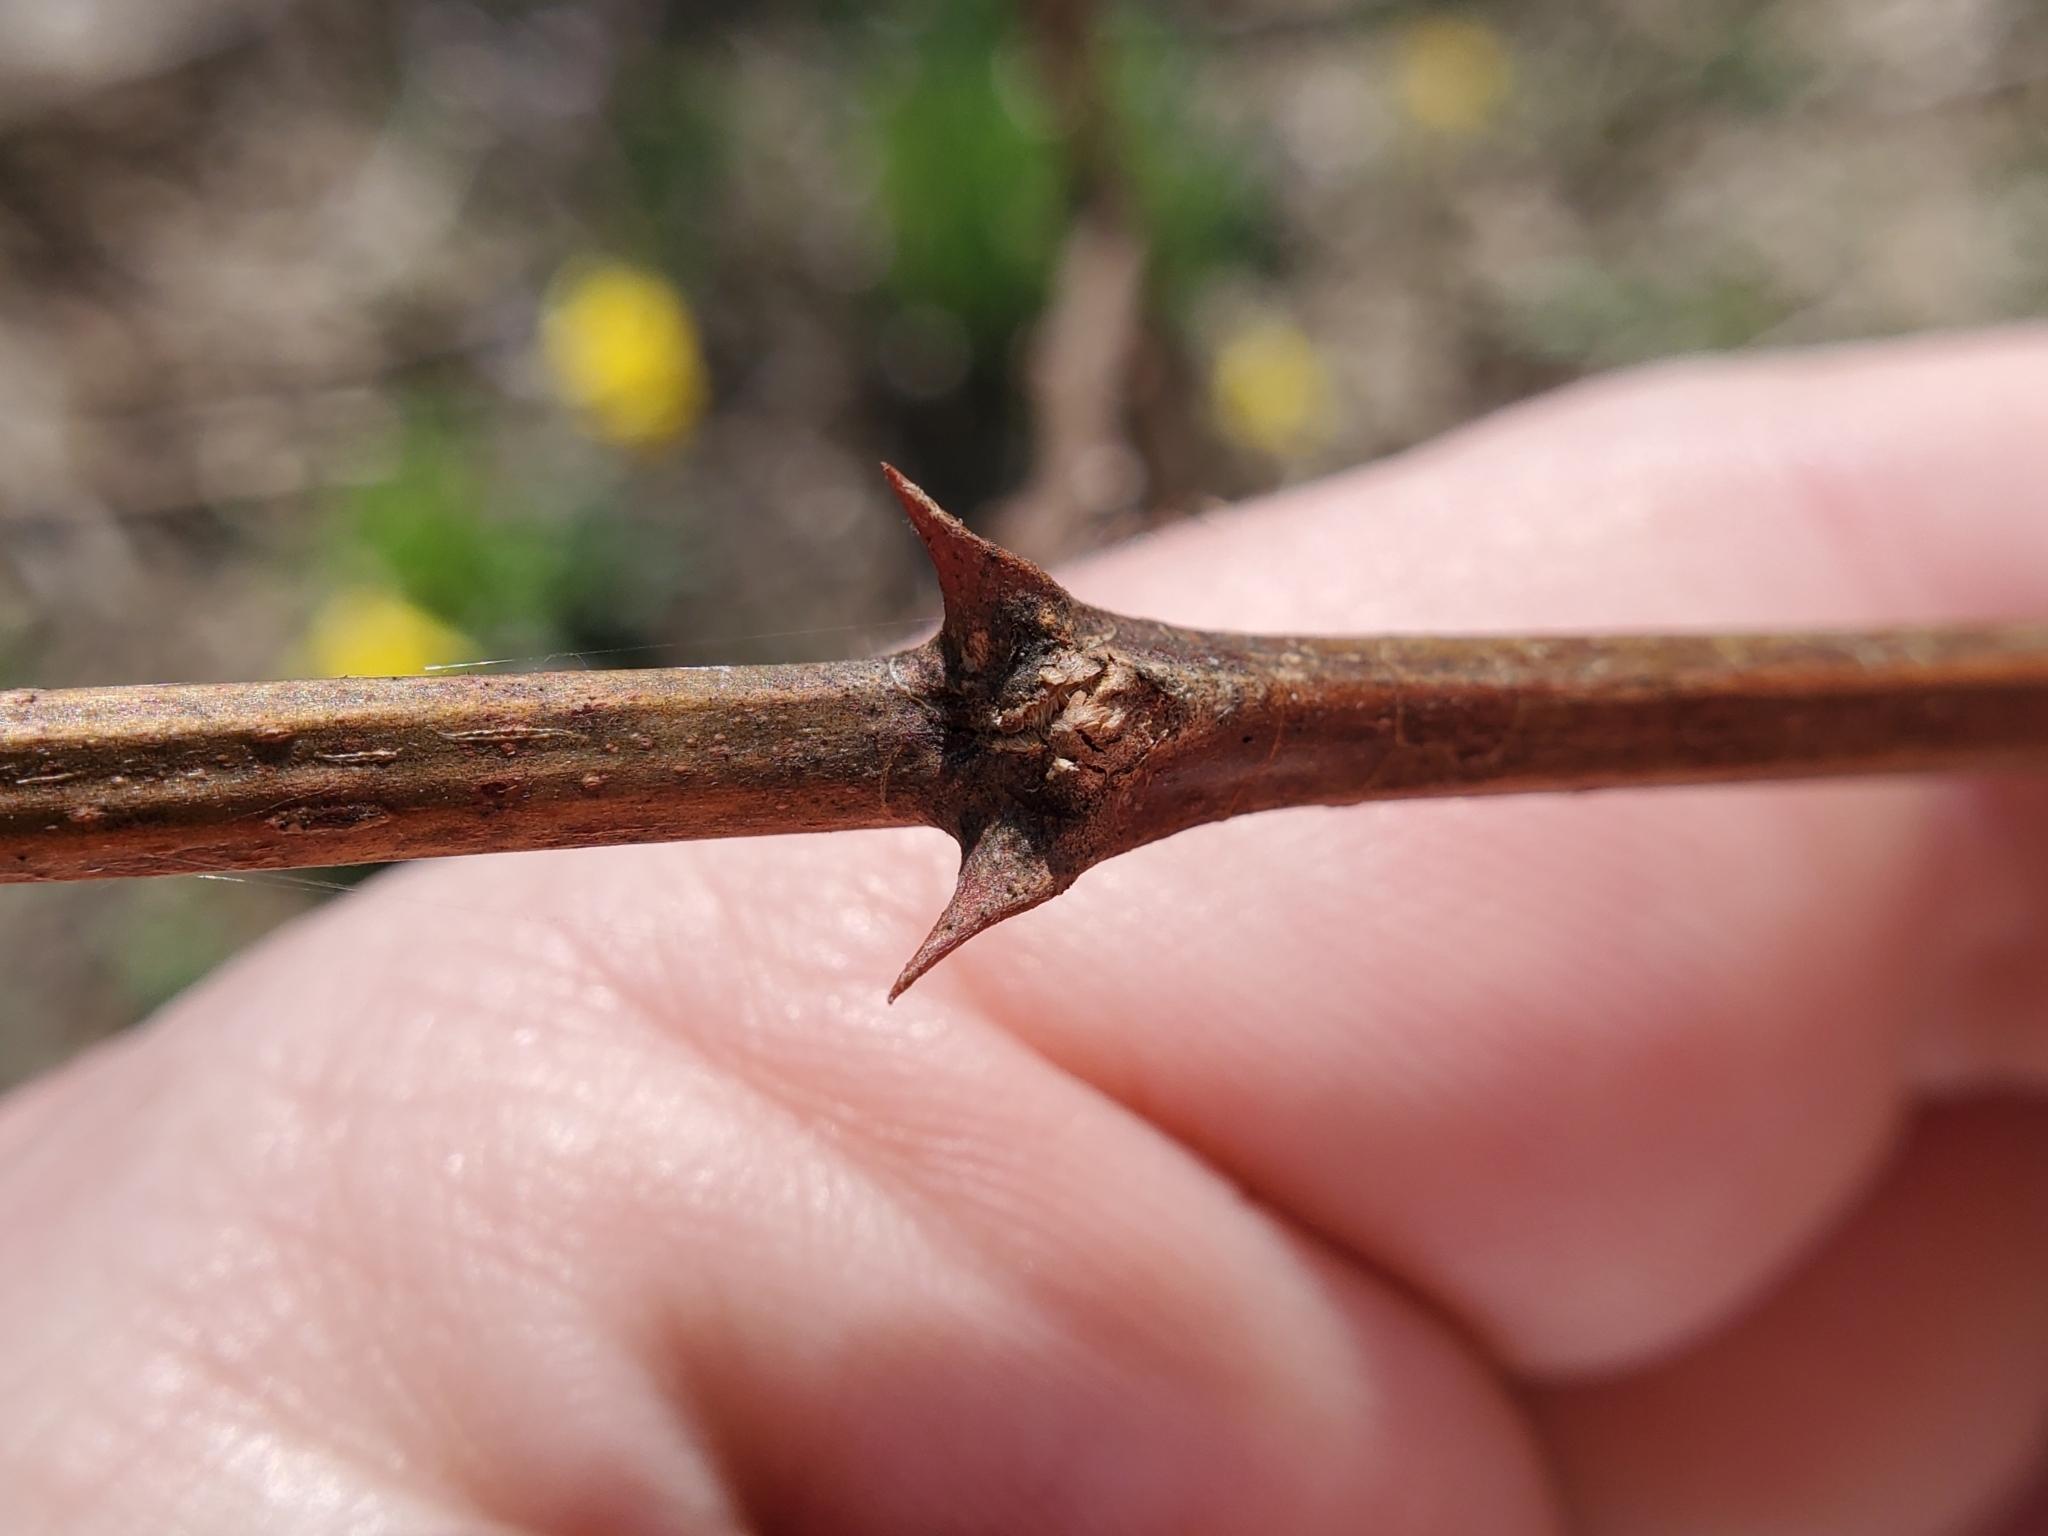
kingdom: Plantae
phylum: Tracheophyta
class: Magnoliopsida
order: Fabales
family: Fabaceae
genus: Robinia
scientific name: Robinia pseudoacacia
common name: Black locust
